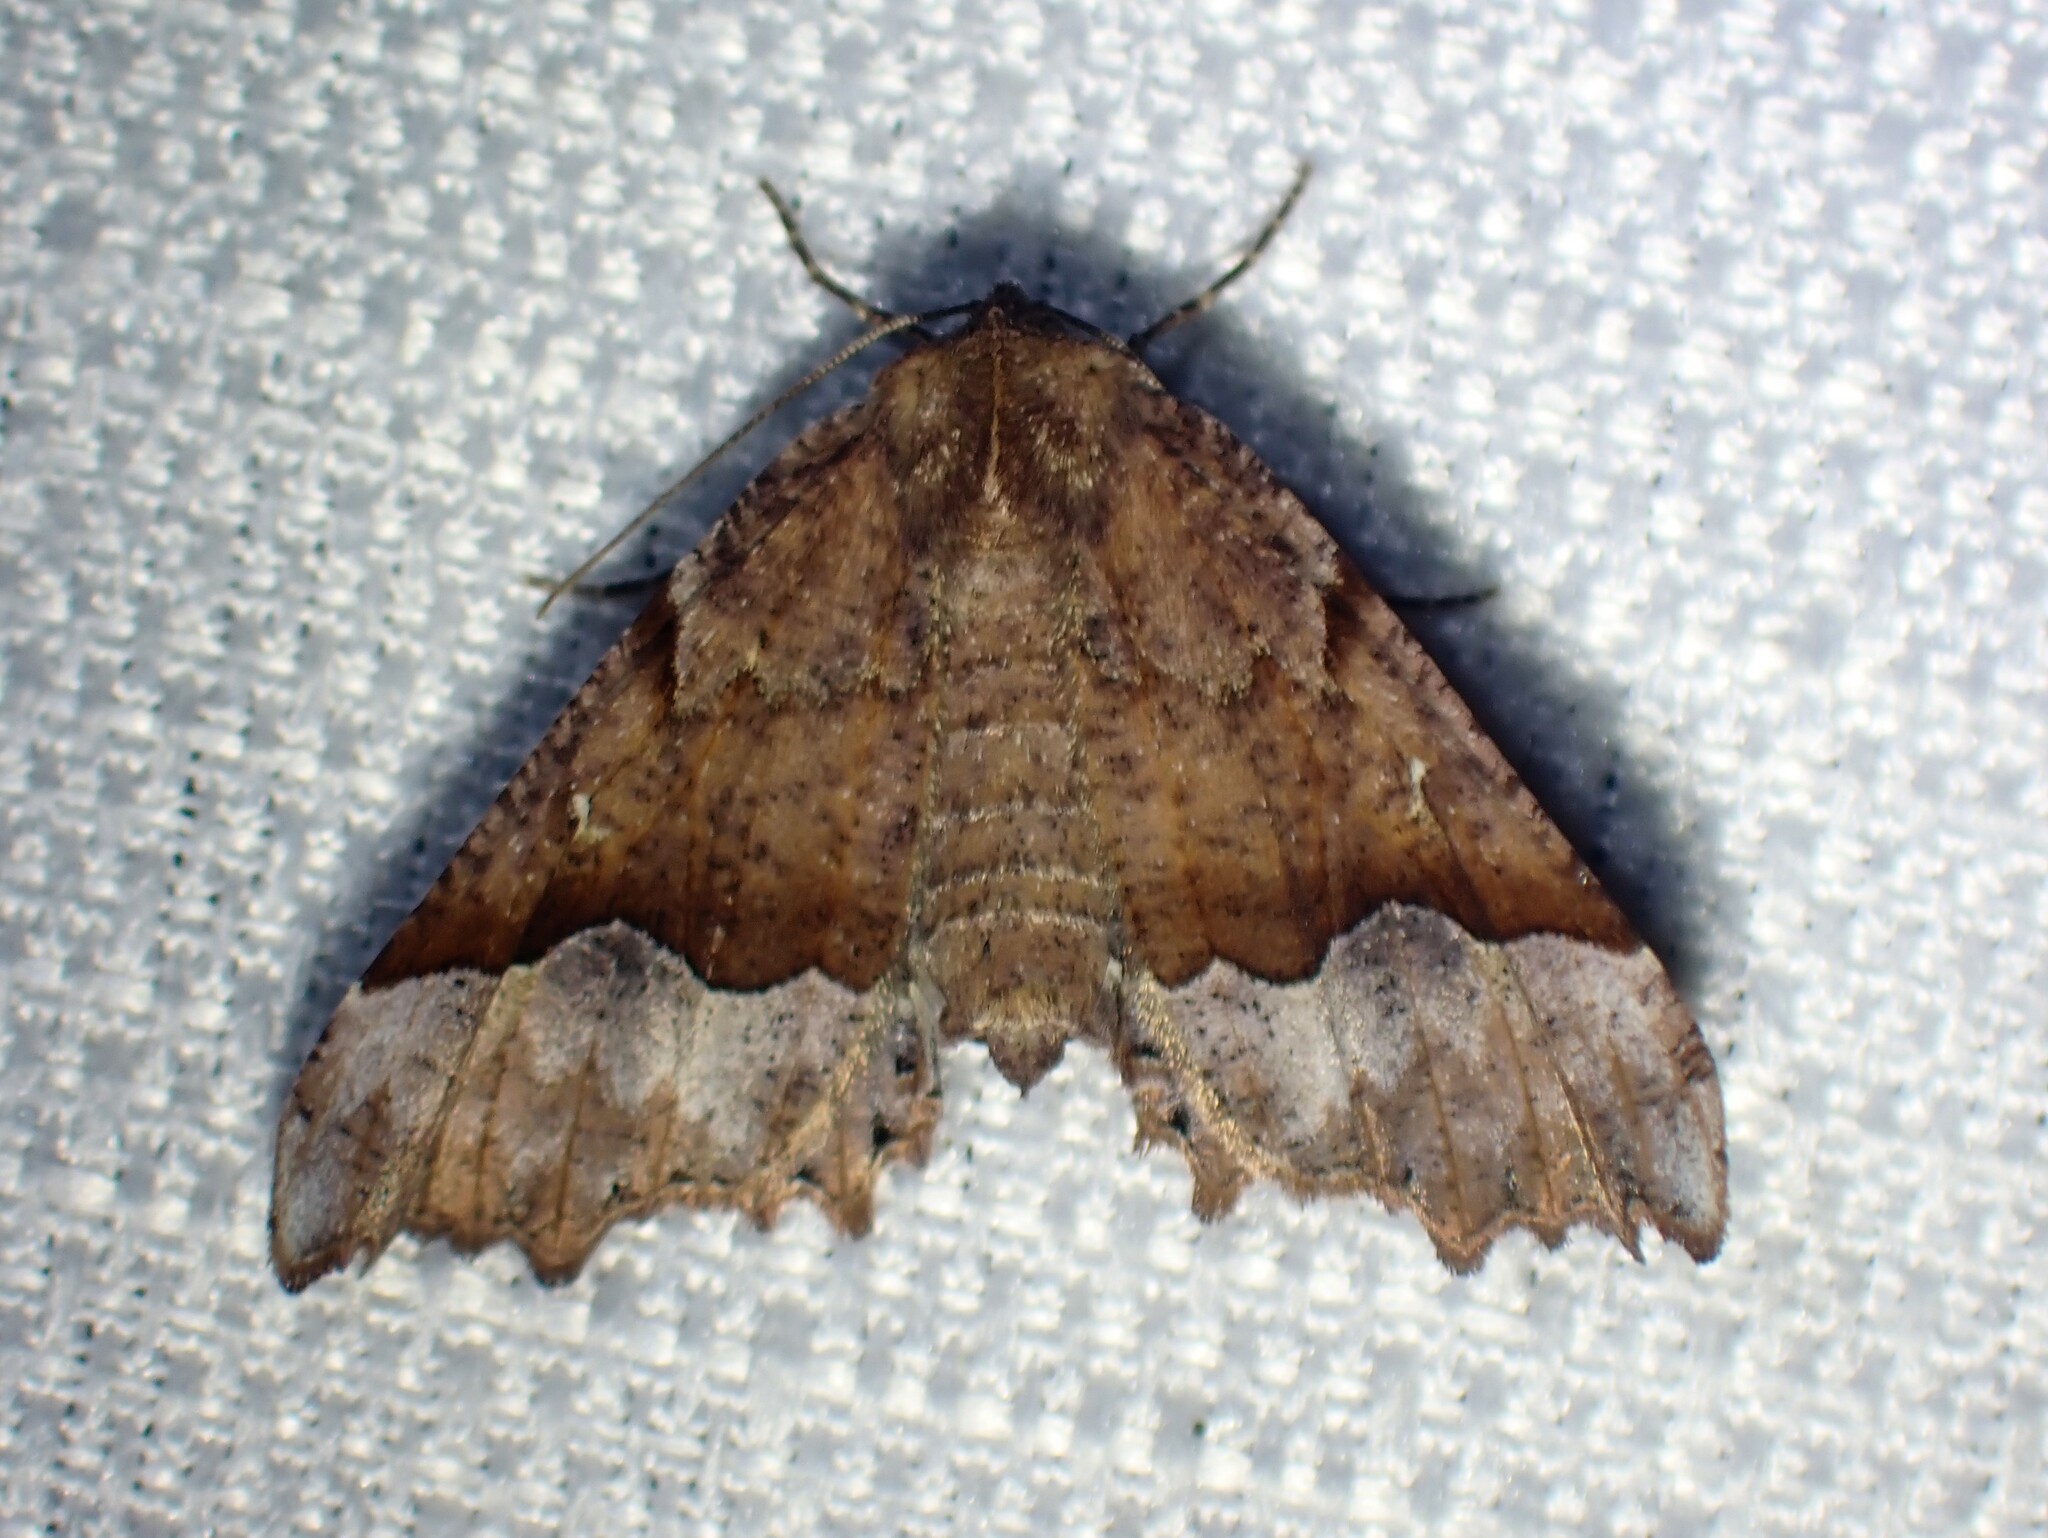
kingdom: Animalia
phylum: Arthropoda
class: Insecta
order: Lepidoptera
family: Geometridae
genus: Pero
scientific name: Pero morrisonaria
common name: Morrison's pero
